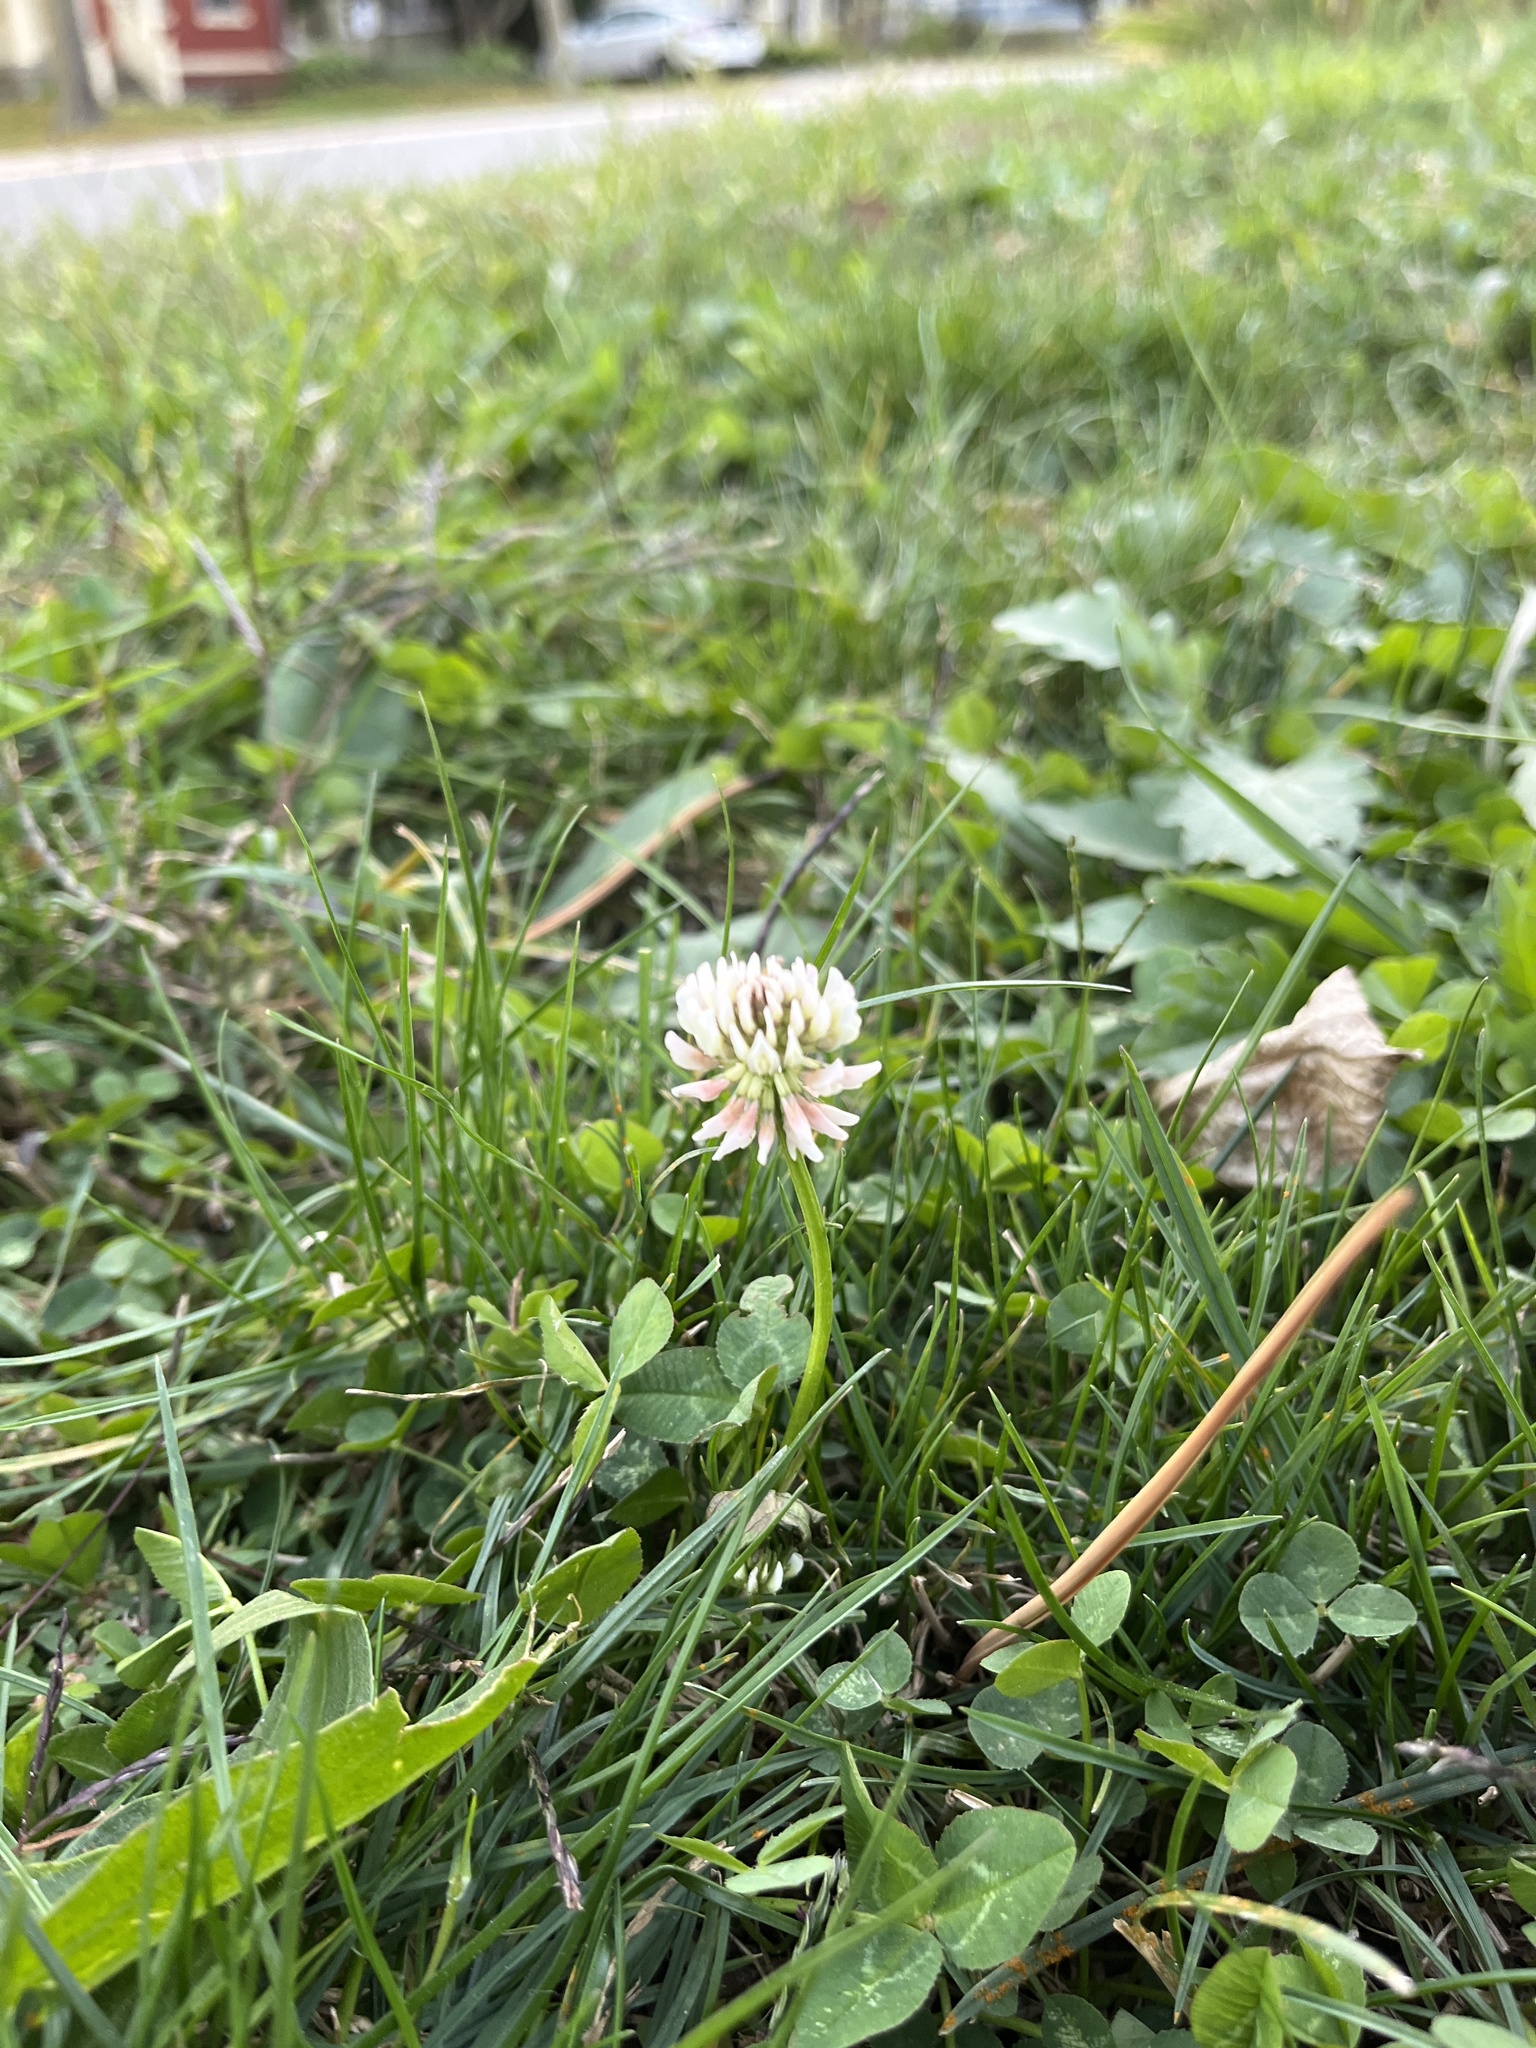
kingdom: Plantae
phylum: Tracheophyta
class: Magnoliopsida
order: Fabales
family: Fabaceae
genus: Trifolium
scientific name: Trifolium repens
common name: White clover
